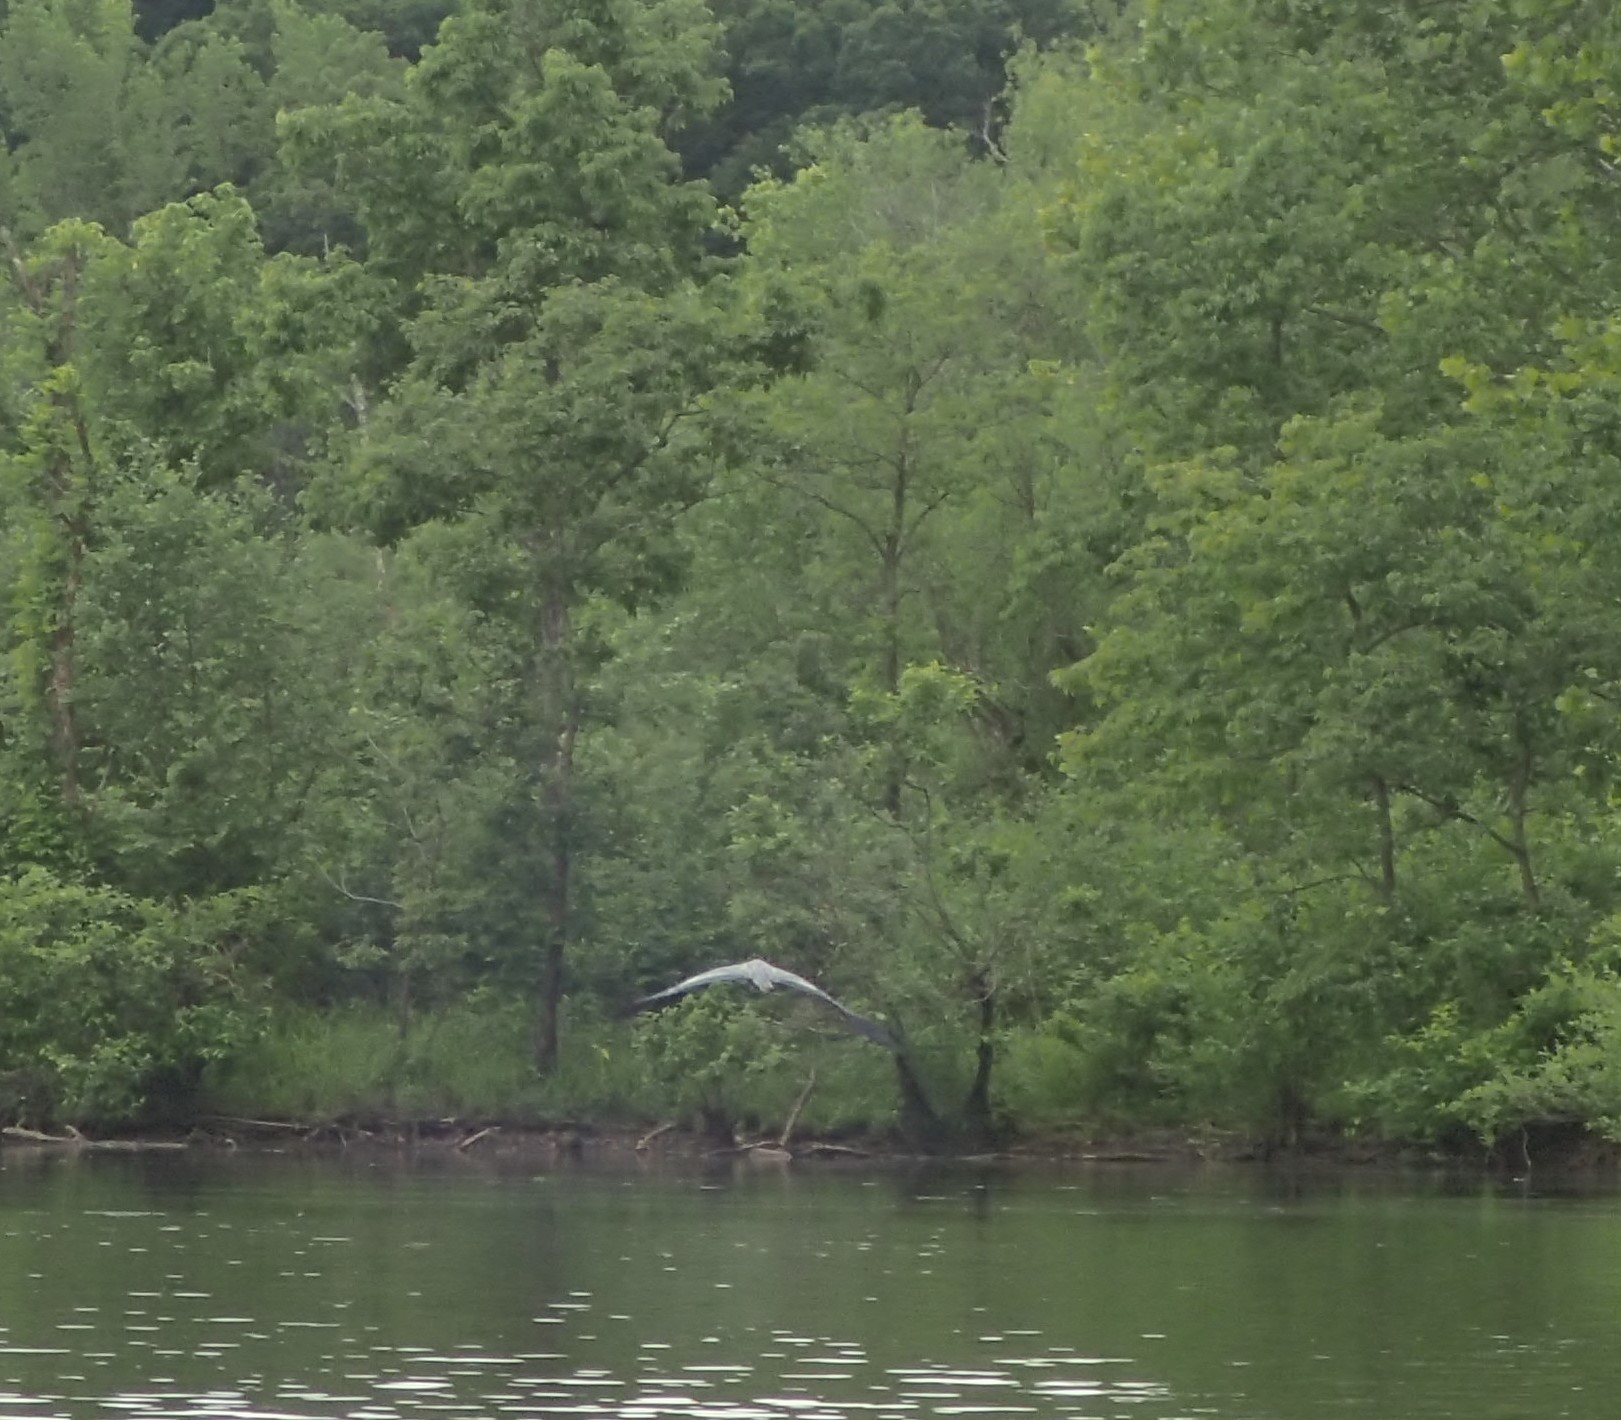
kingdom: Animalia
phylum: Chordata
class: Aves
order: Pelecaniformes
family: Ardeidae
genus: Ardea
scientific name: Ardea herodias
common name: Great blue heron
